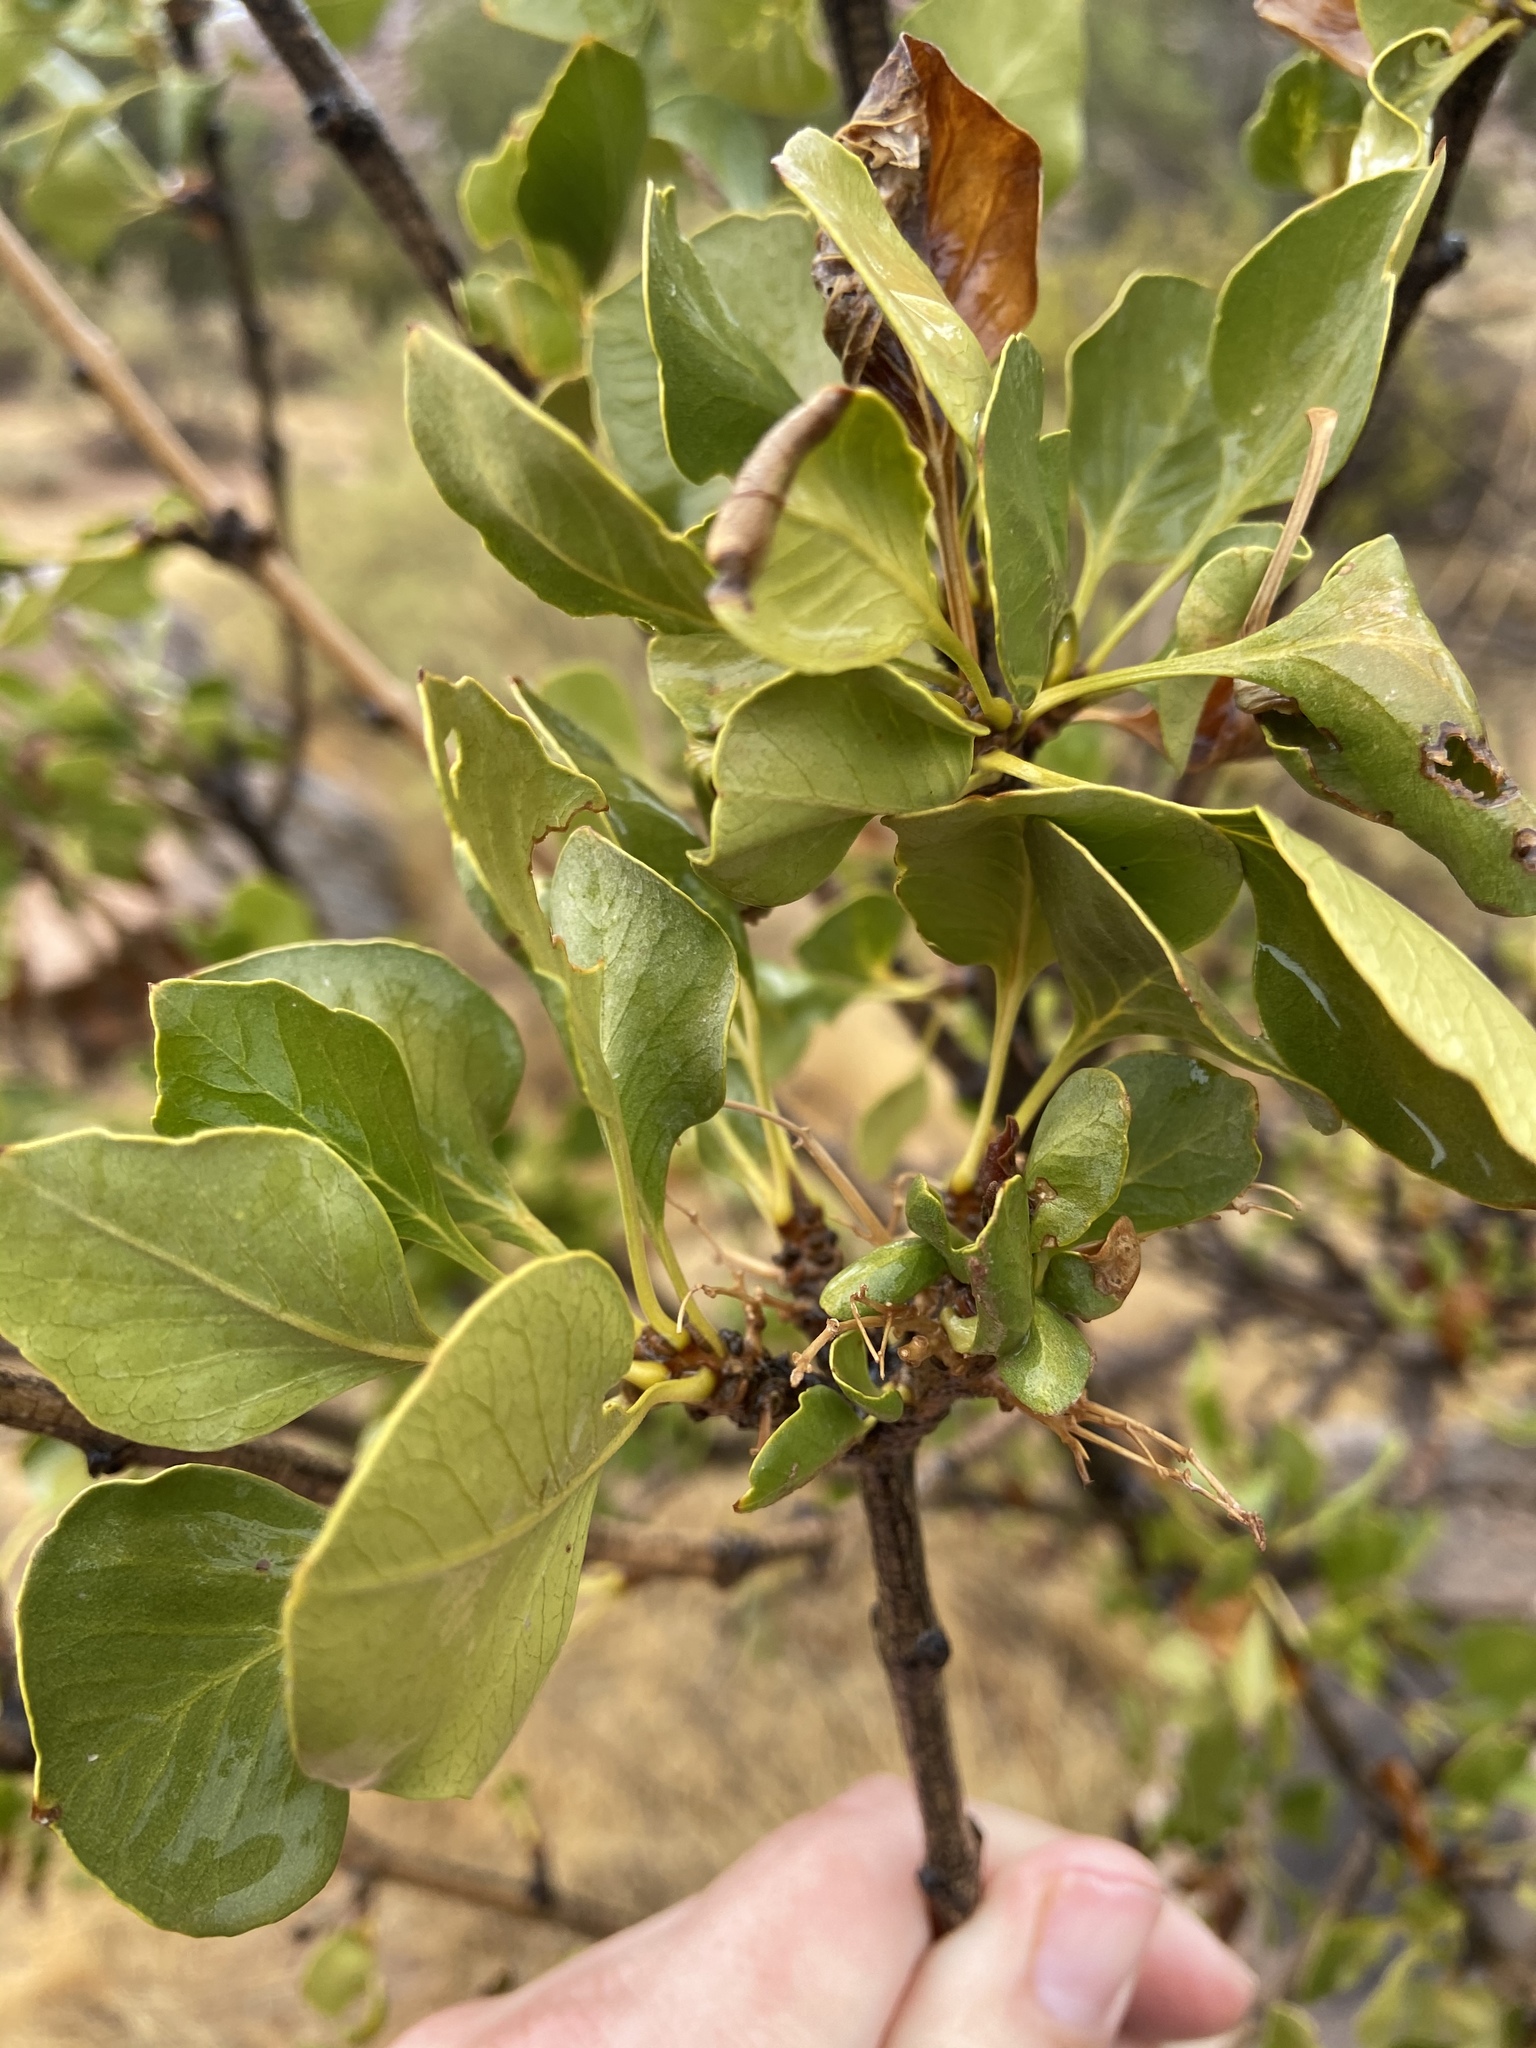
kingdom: Plantae
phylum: Tracheophyta
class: Magnoliopsida
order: Lamiales
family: Oleaceae
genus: Fraxinus
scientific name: Fraxinus anomala
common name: Utah ash
